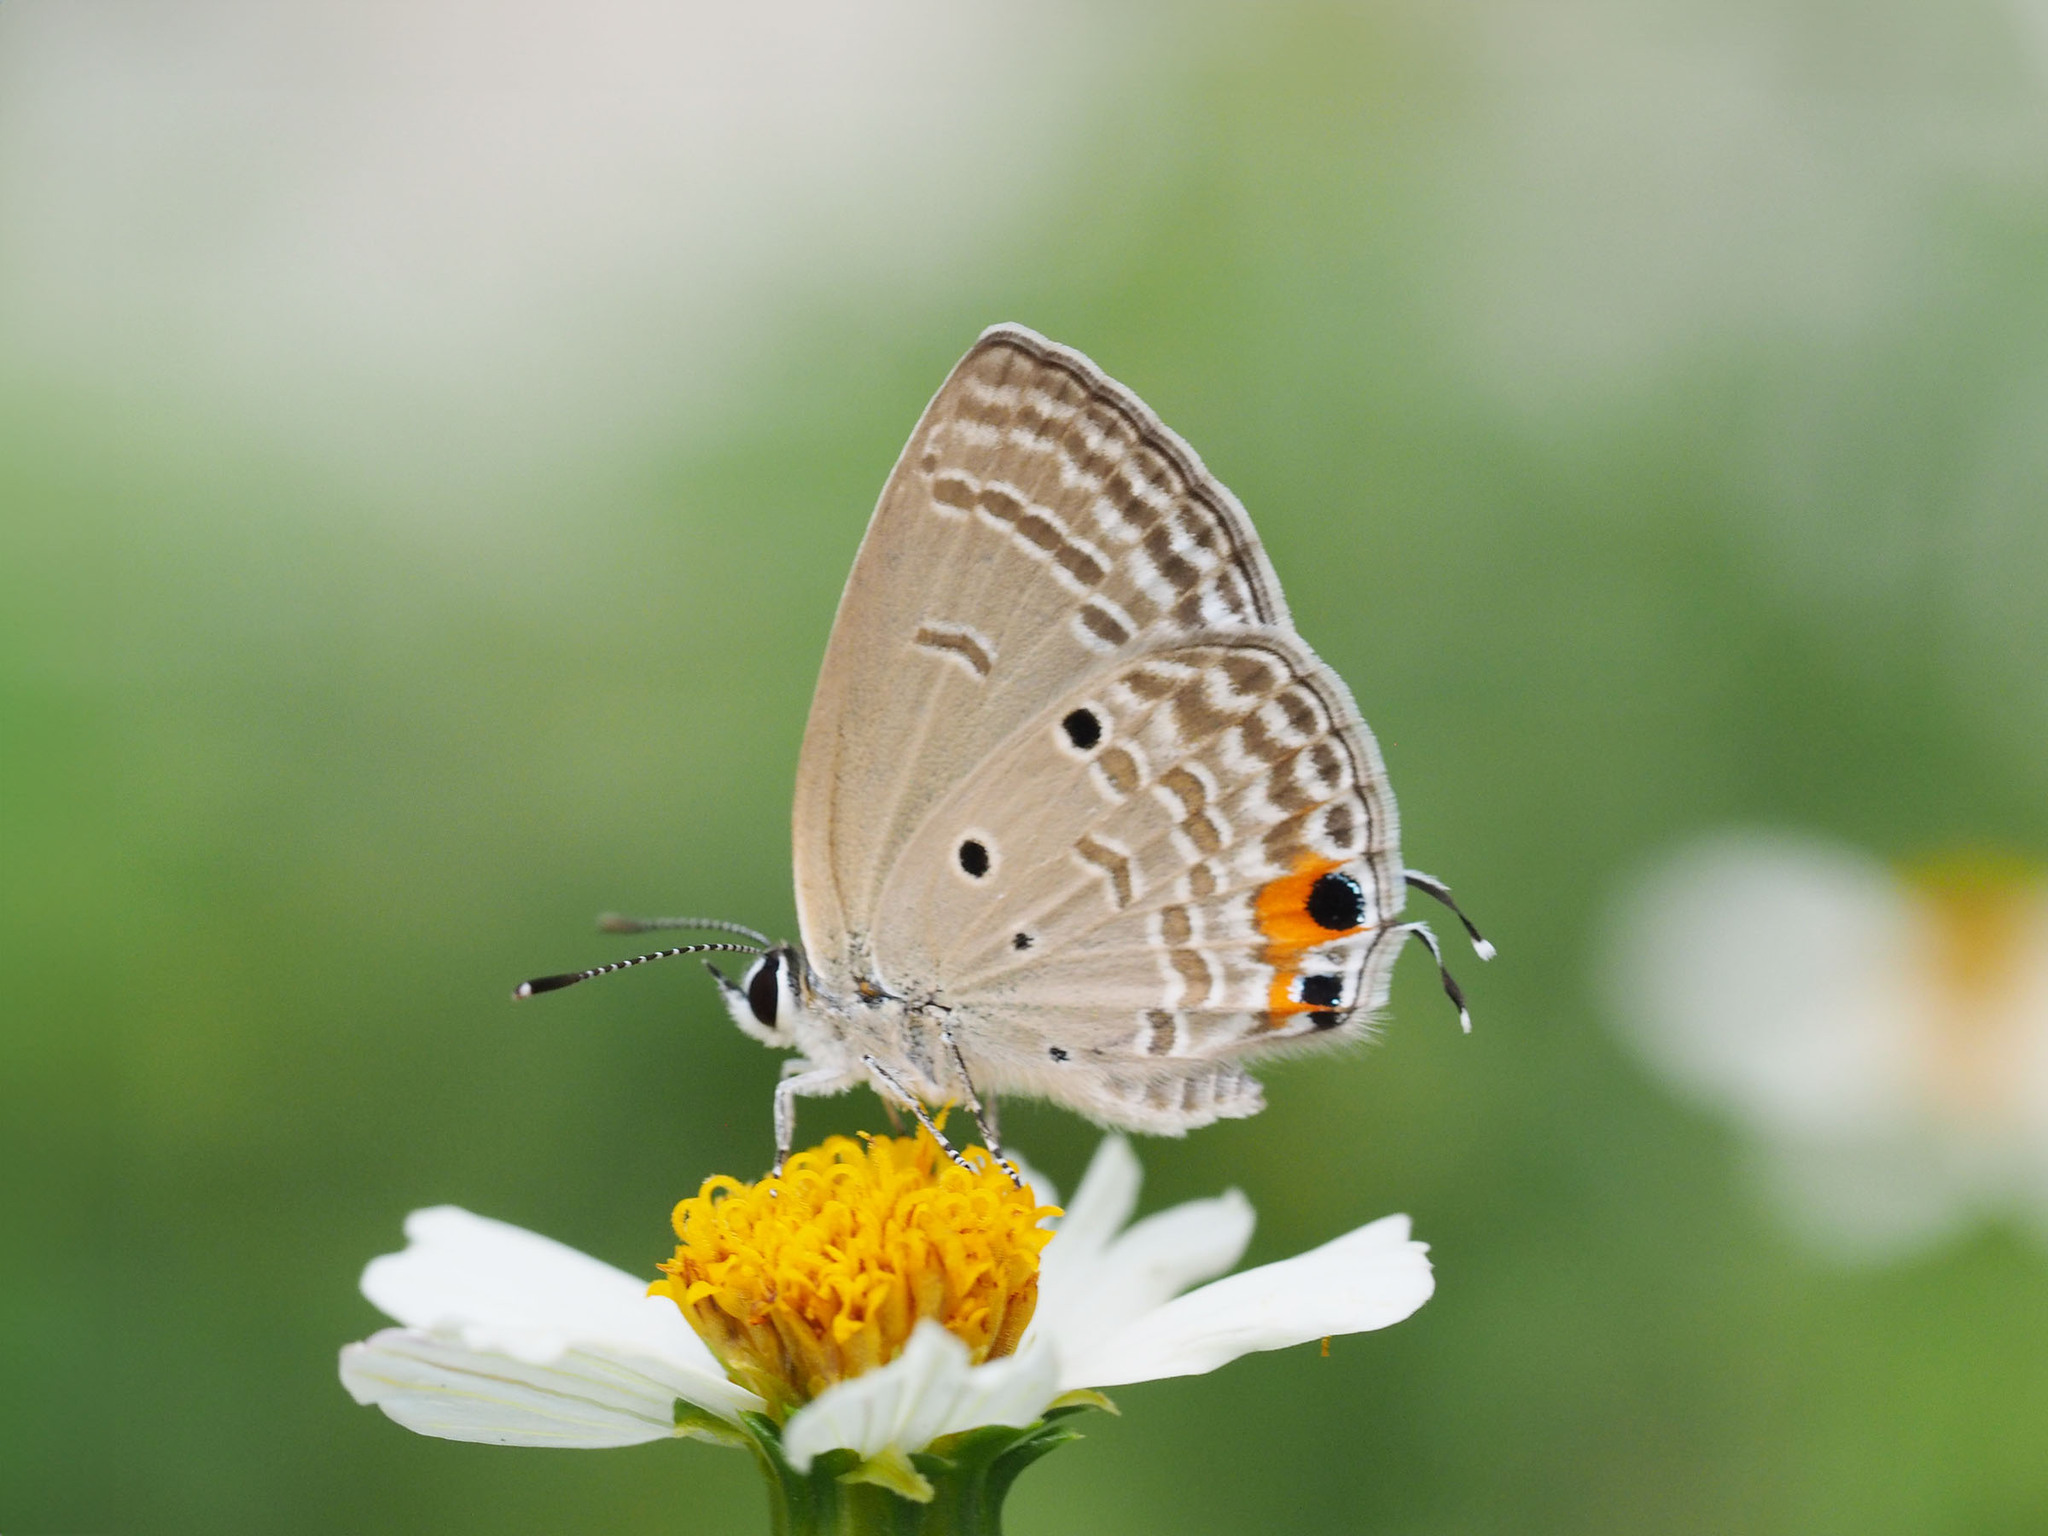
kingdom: Animalia
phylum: Arthropoda
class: Insecta
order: Lepidoptera
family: Lycaenidae
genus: Luthrodes
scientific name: Luthrodes pandava
